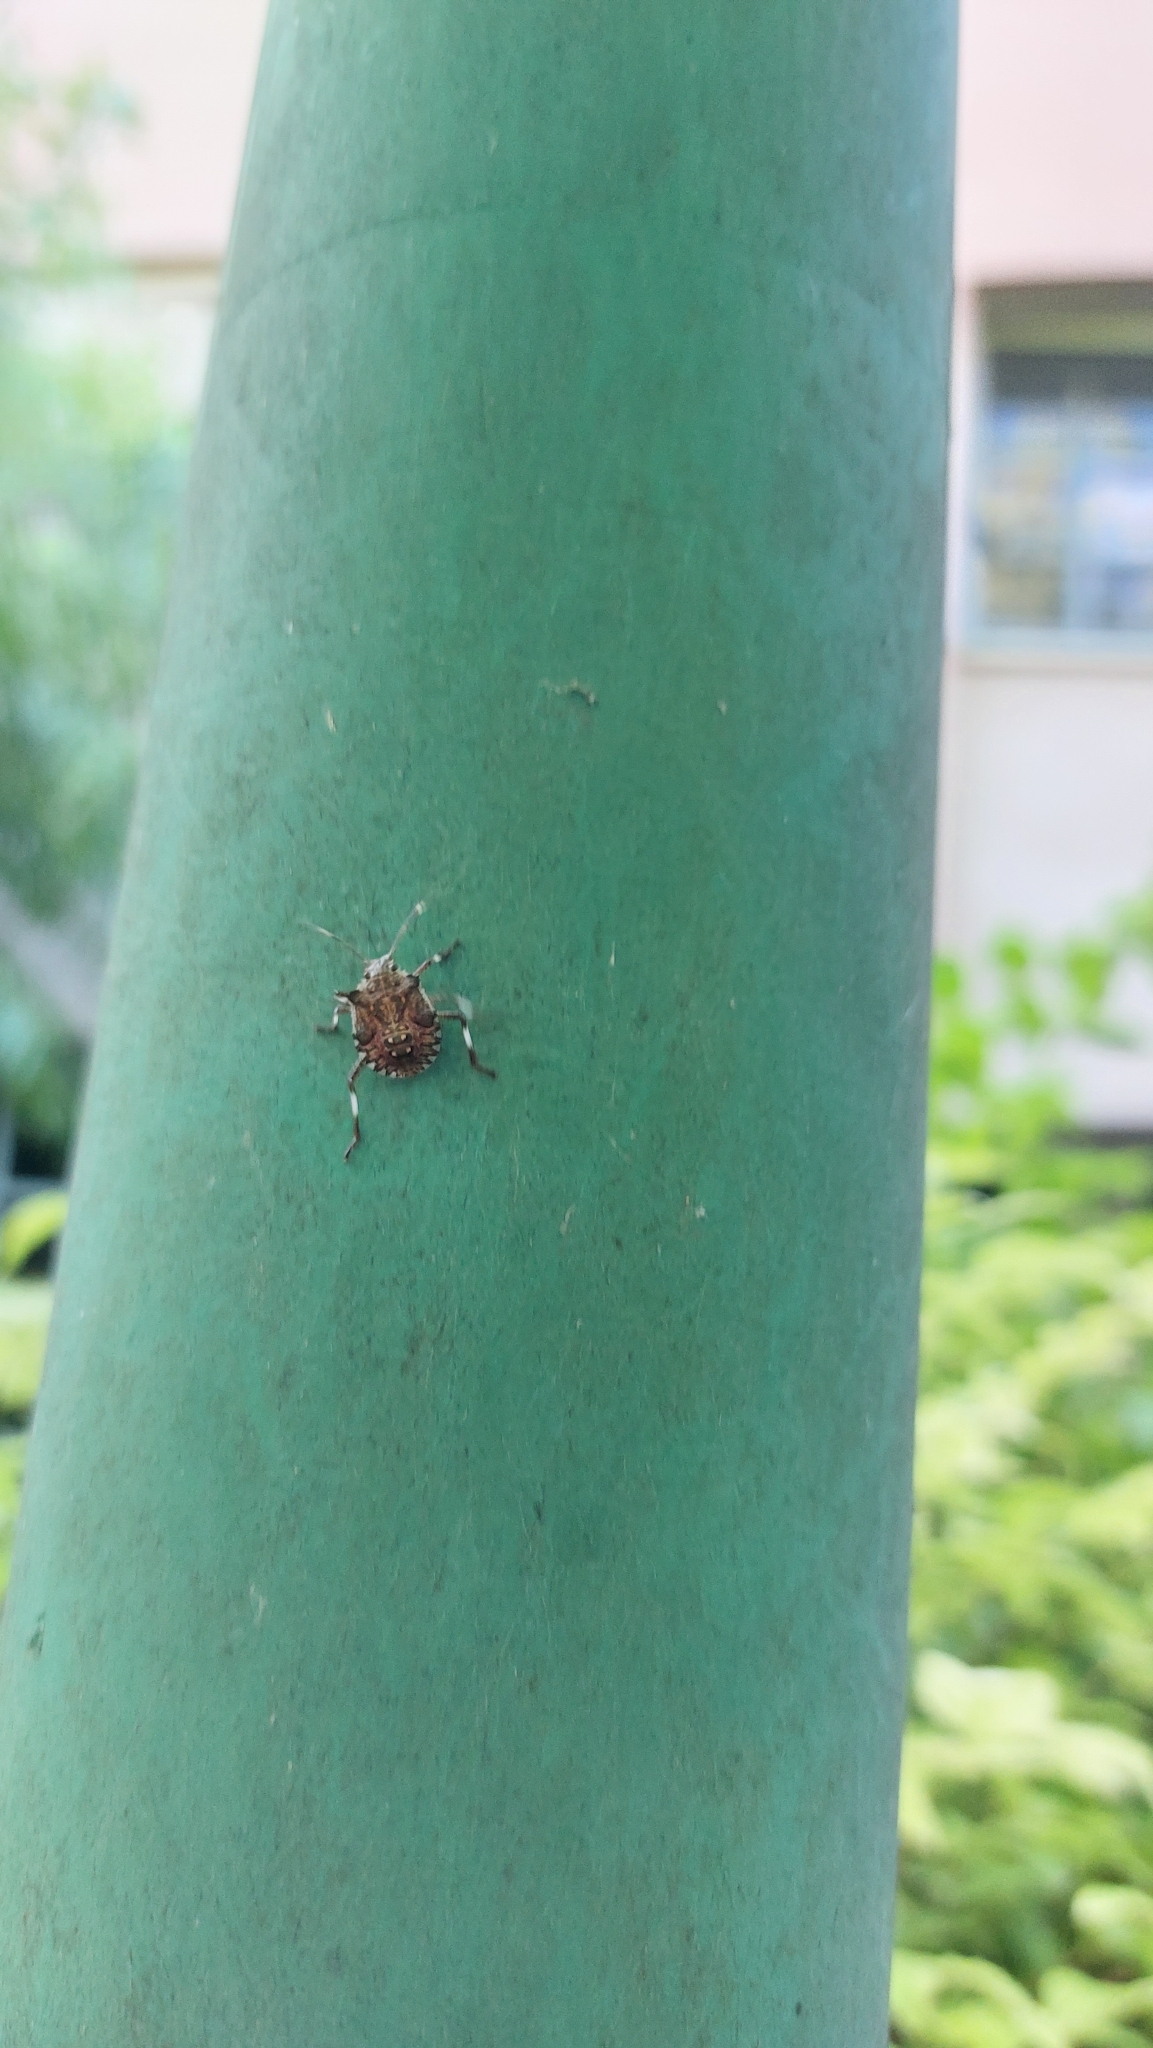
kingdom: Animalia
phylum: Arthropoda
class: Insecta
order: Hemiptera
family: Pentatomidae
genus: Halyomorpha
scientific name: Halyomorpha halys
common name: Brown marmorated stink bug
